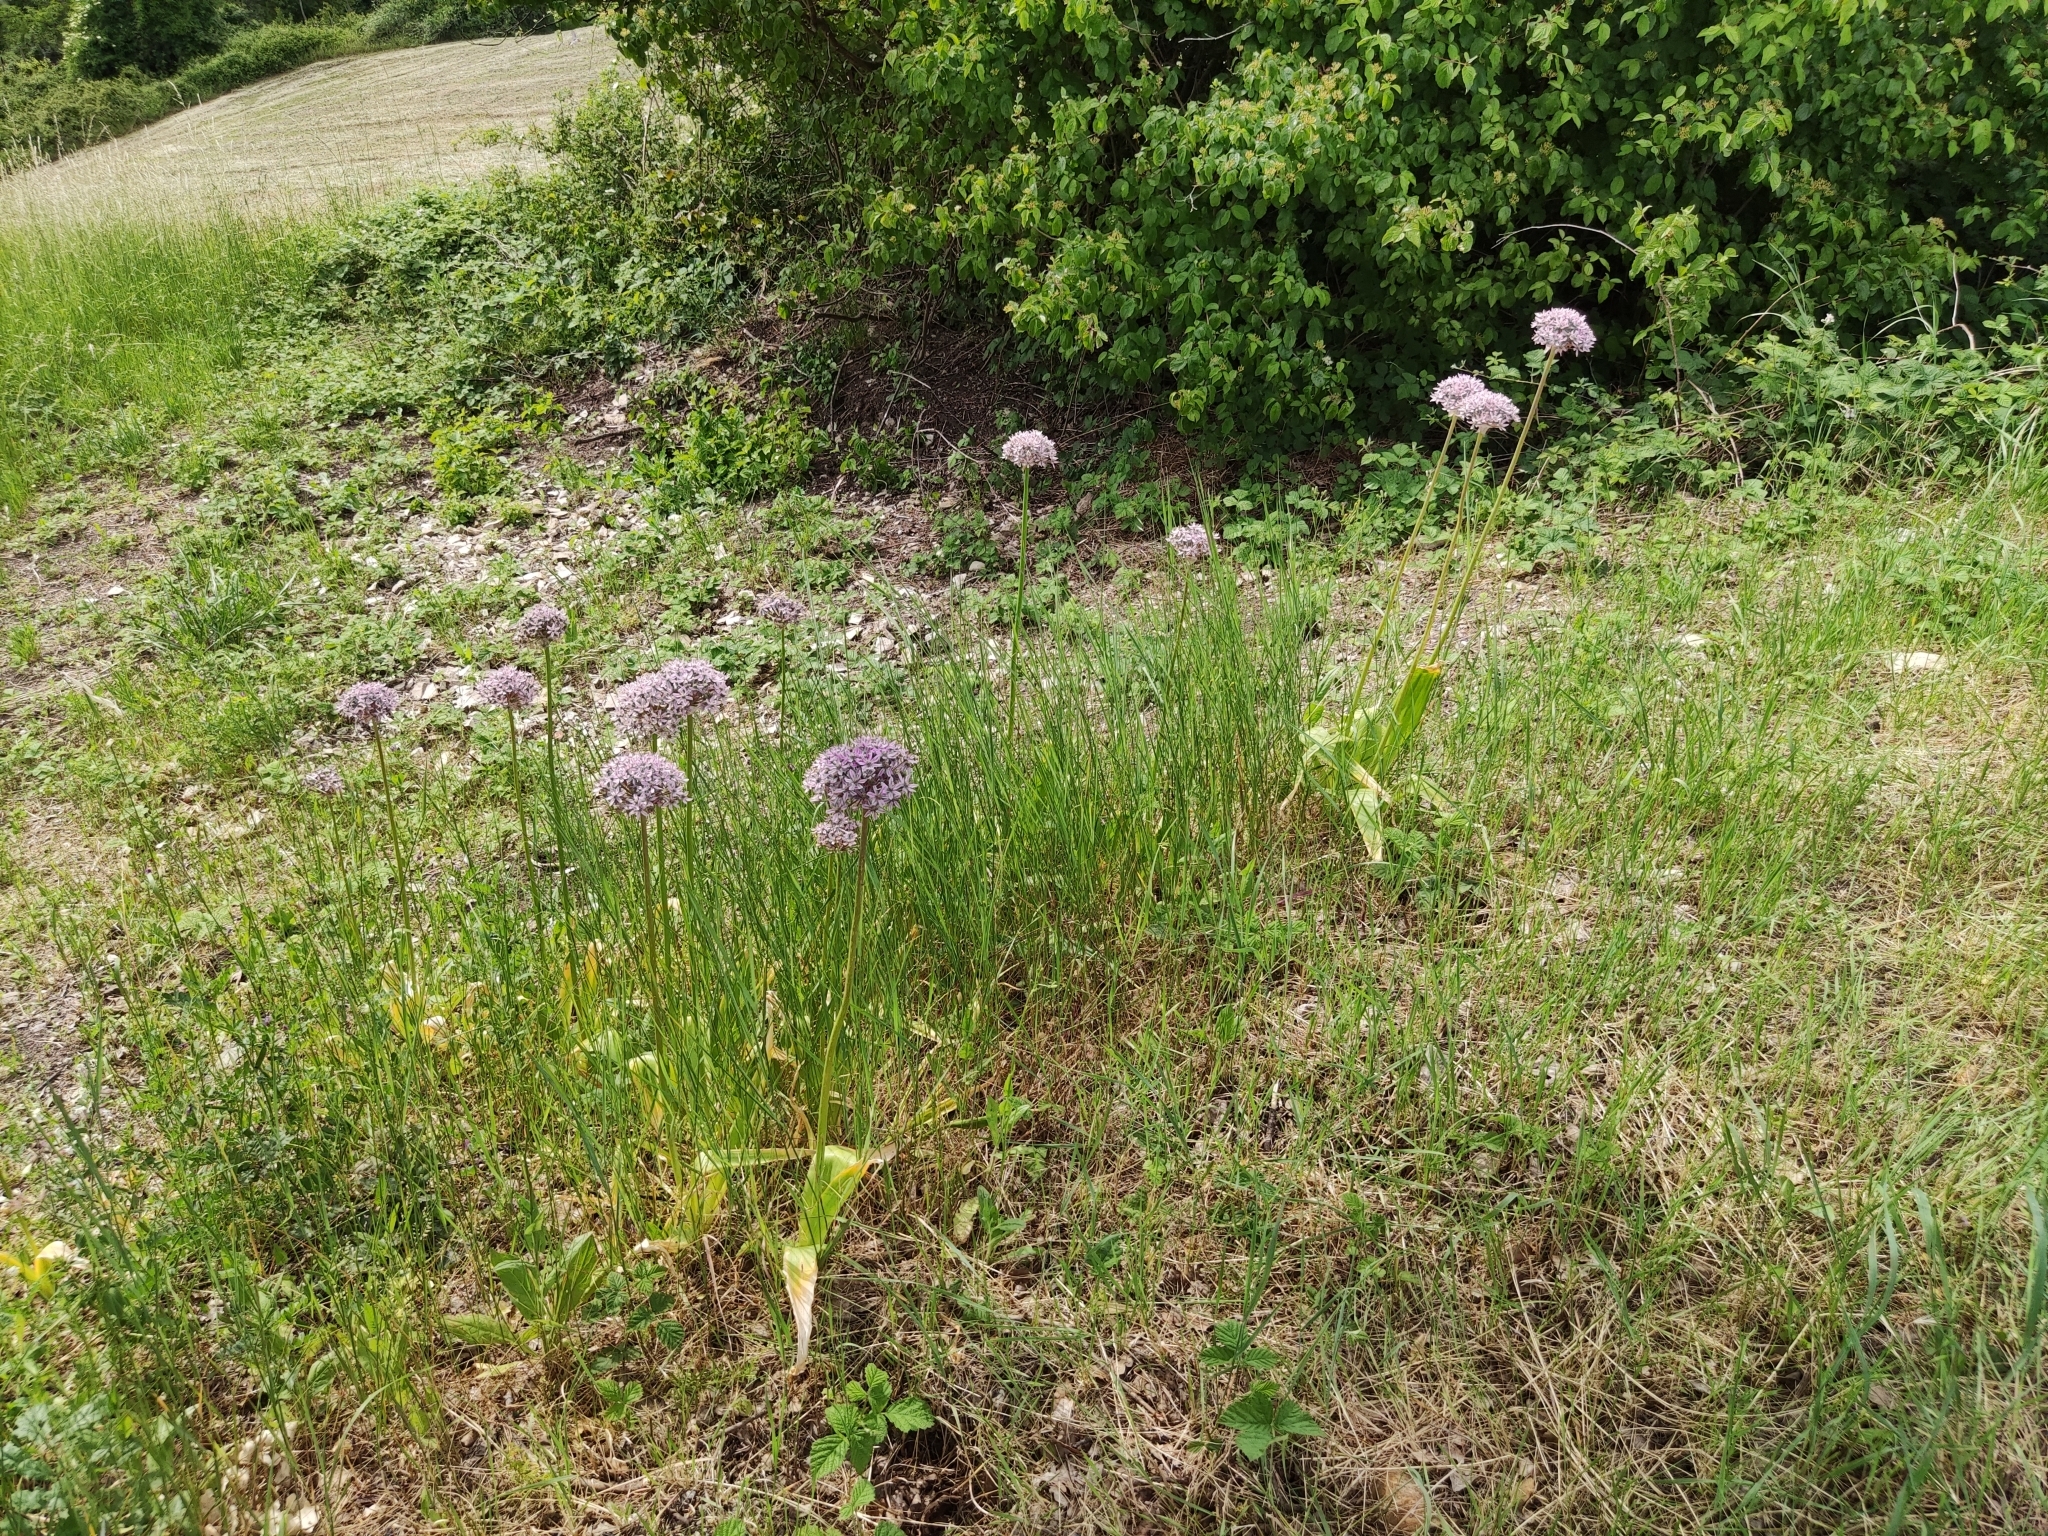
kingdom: Plantae
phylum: Tracheophyta
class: Liliopsida
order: Asparagales
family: Amaryllidaceae
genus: Allium
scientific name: Allium nigrum
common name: Black garlic
